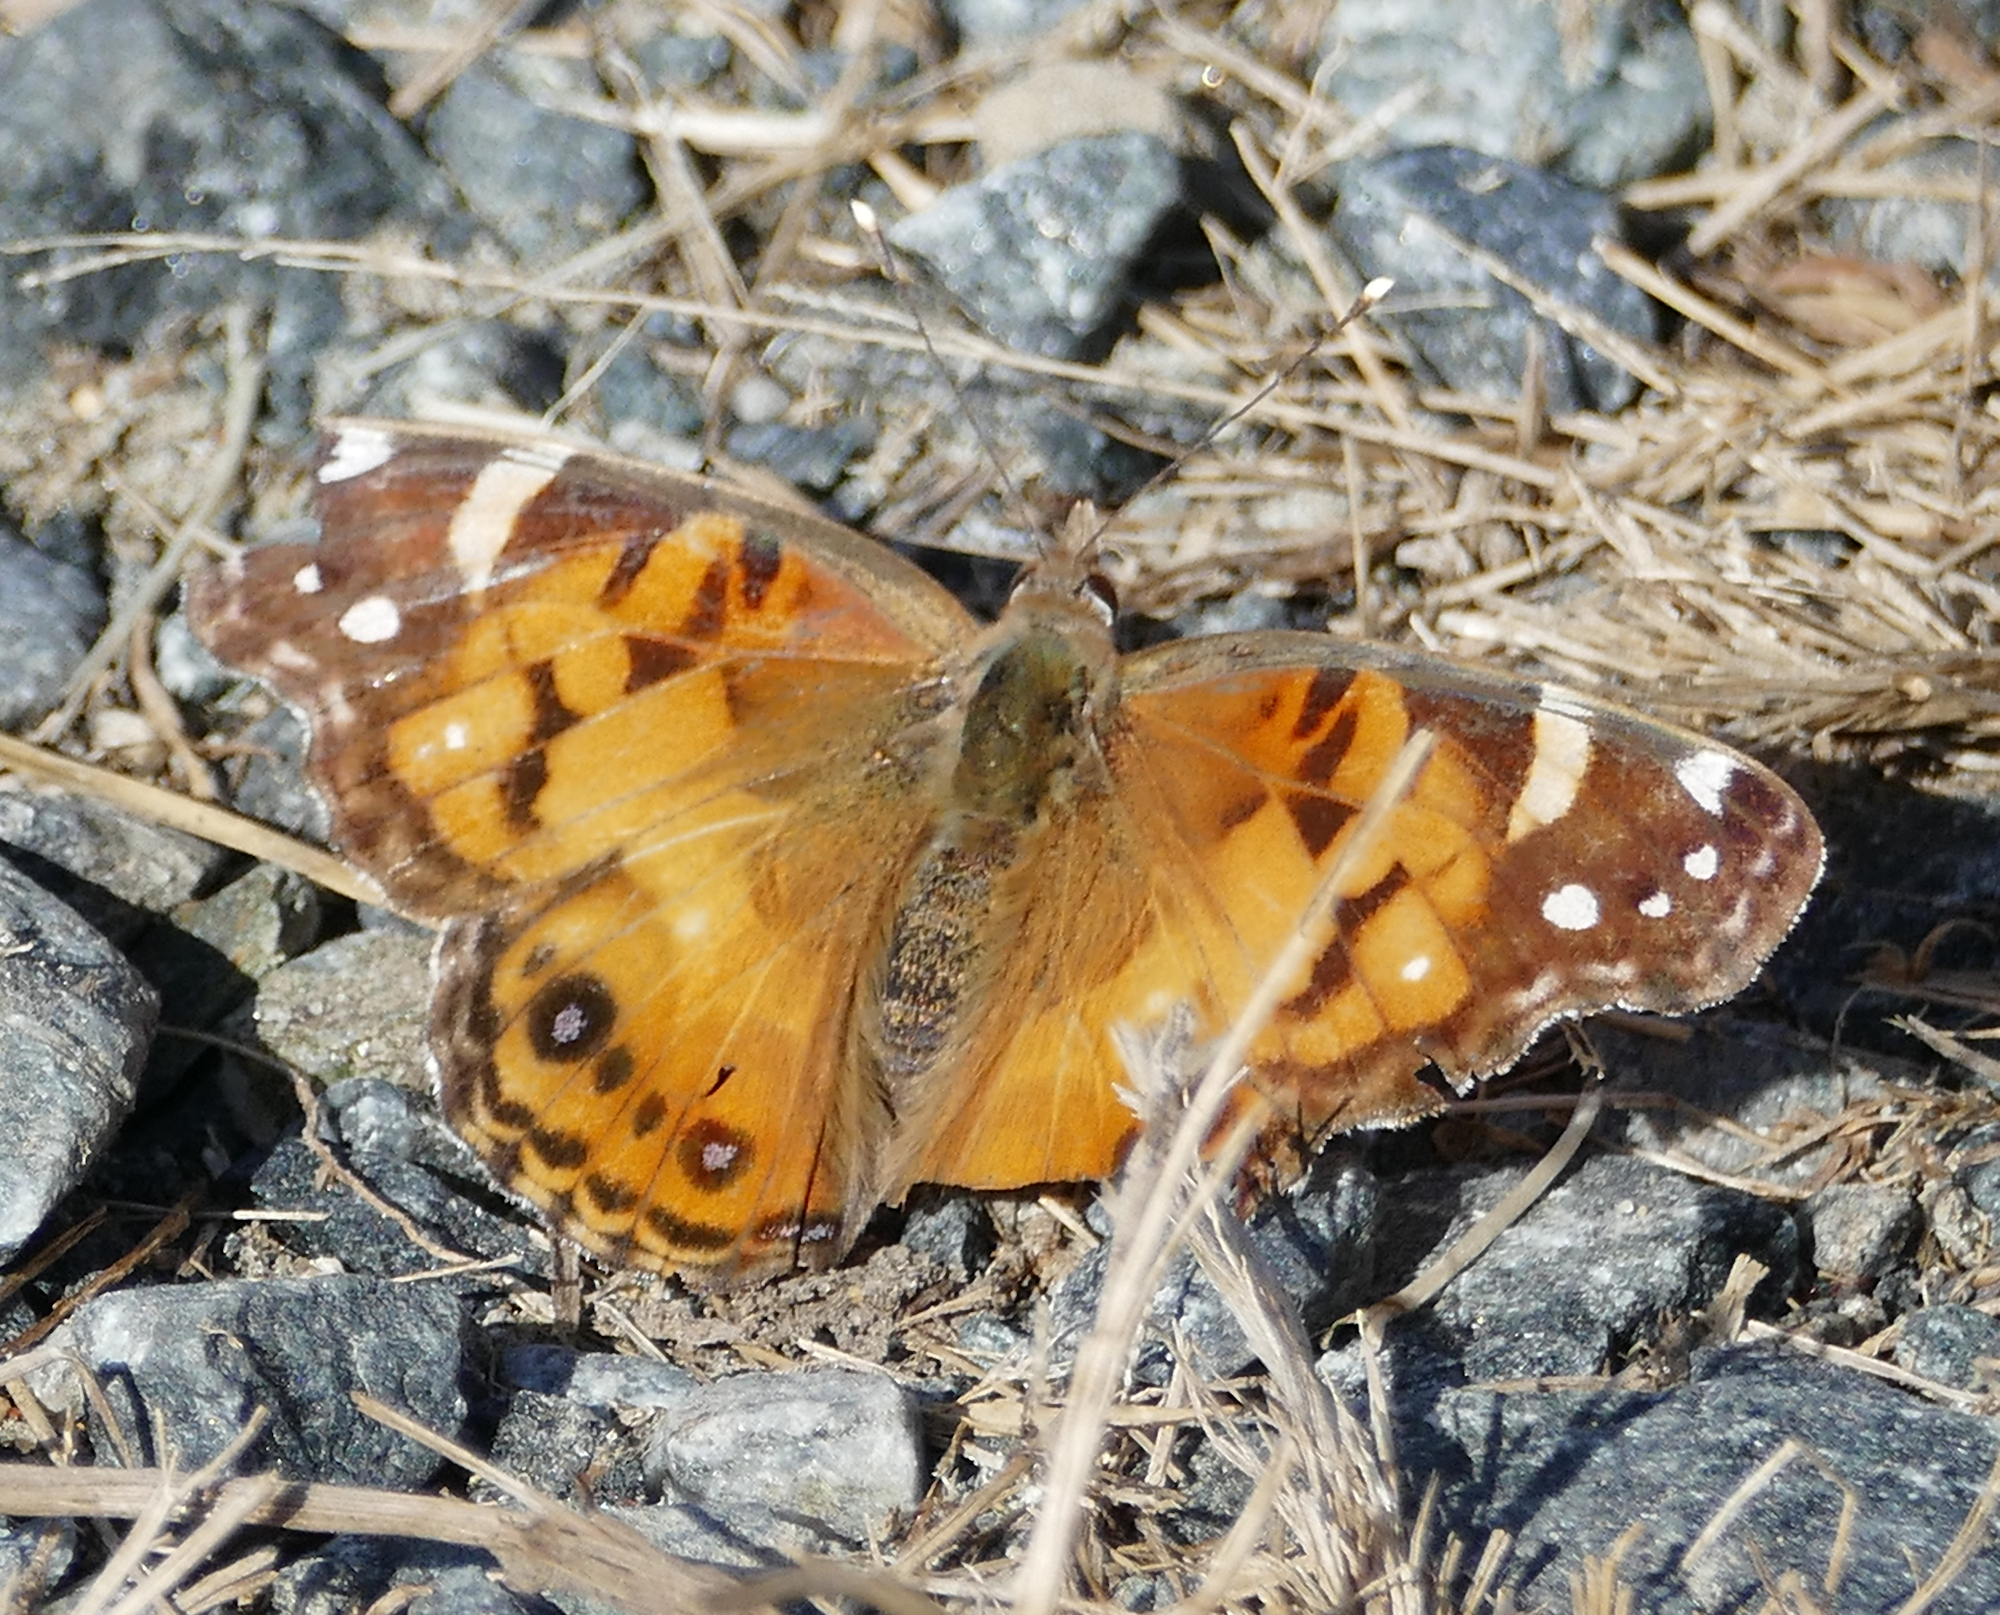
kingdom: Animalia
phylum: Arthropoda
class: Insecta
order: Lepidoptera
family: Nymphalidae
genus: Vanessa
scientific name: Vanessa virginiensis
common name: American lady
